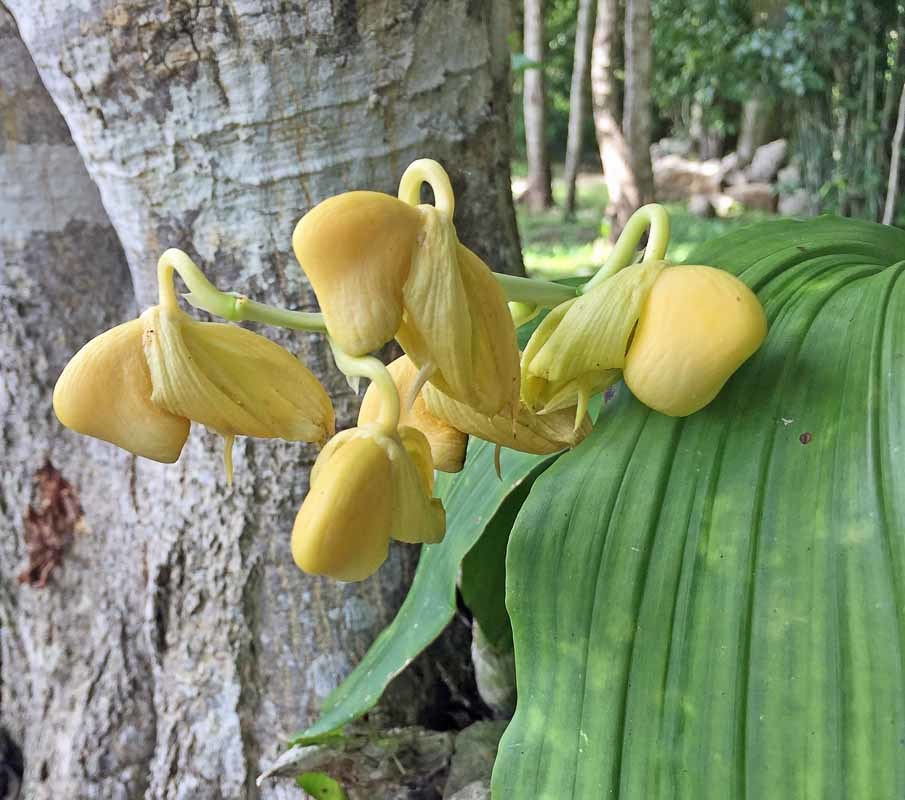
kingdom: Plantae
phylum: Tracheophyta
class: Liliopsida
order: Asparagales
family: Orchidaceae
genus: Catasetum
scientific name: Catasetum integerrimum
